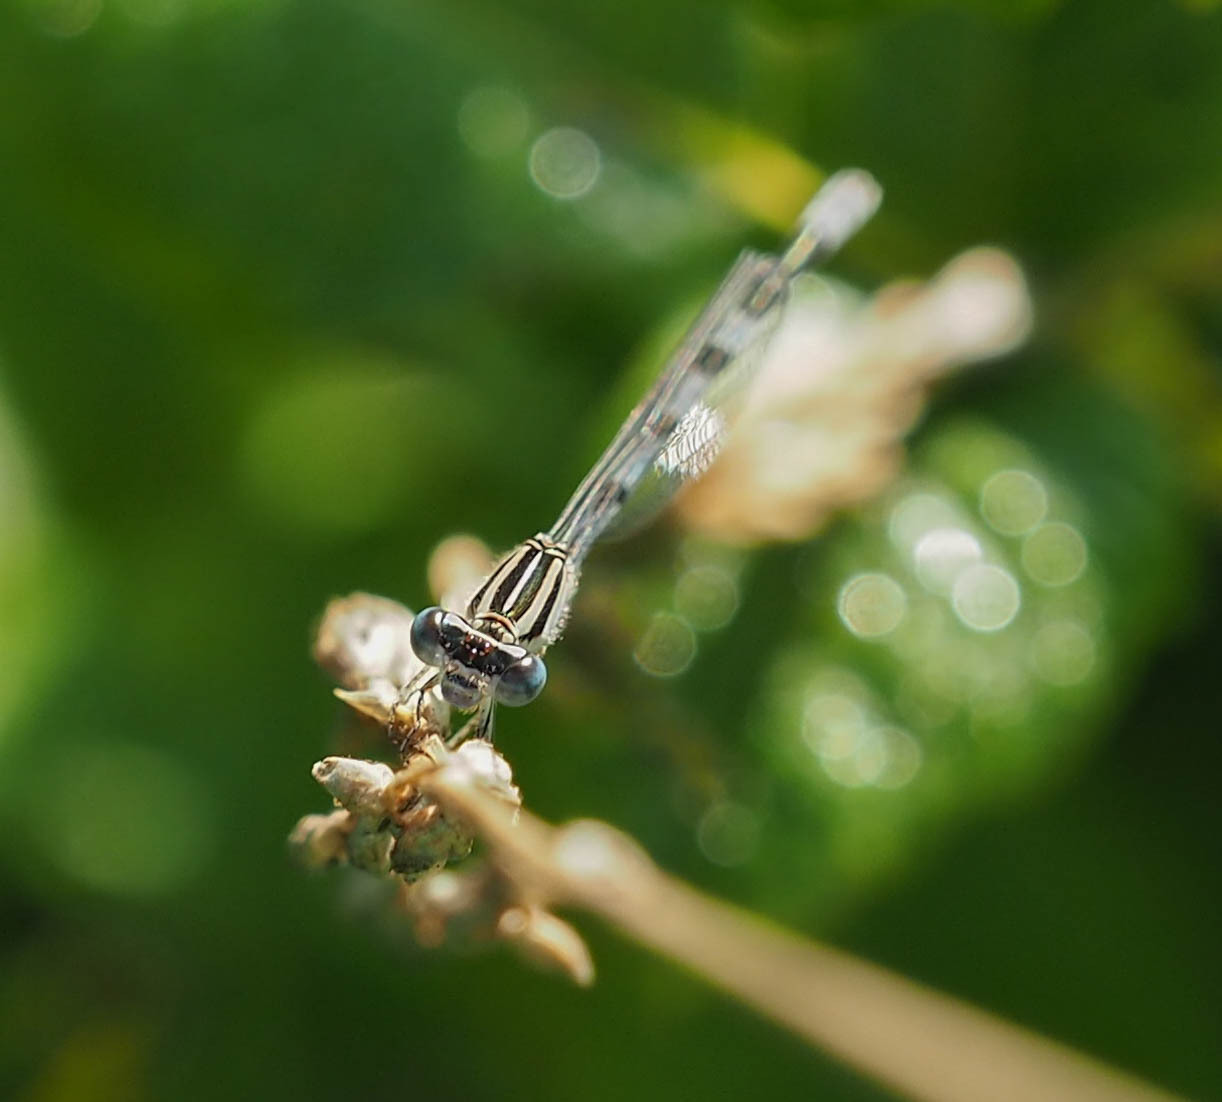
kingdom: Animalia
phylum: Arthropoda
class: Insecta
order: Odonata
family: Coenagrionidae
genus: Enallagma
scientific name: Enallagma durum
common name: Big bluet
